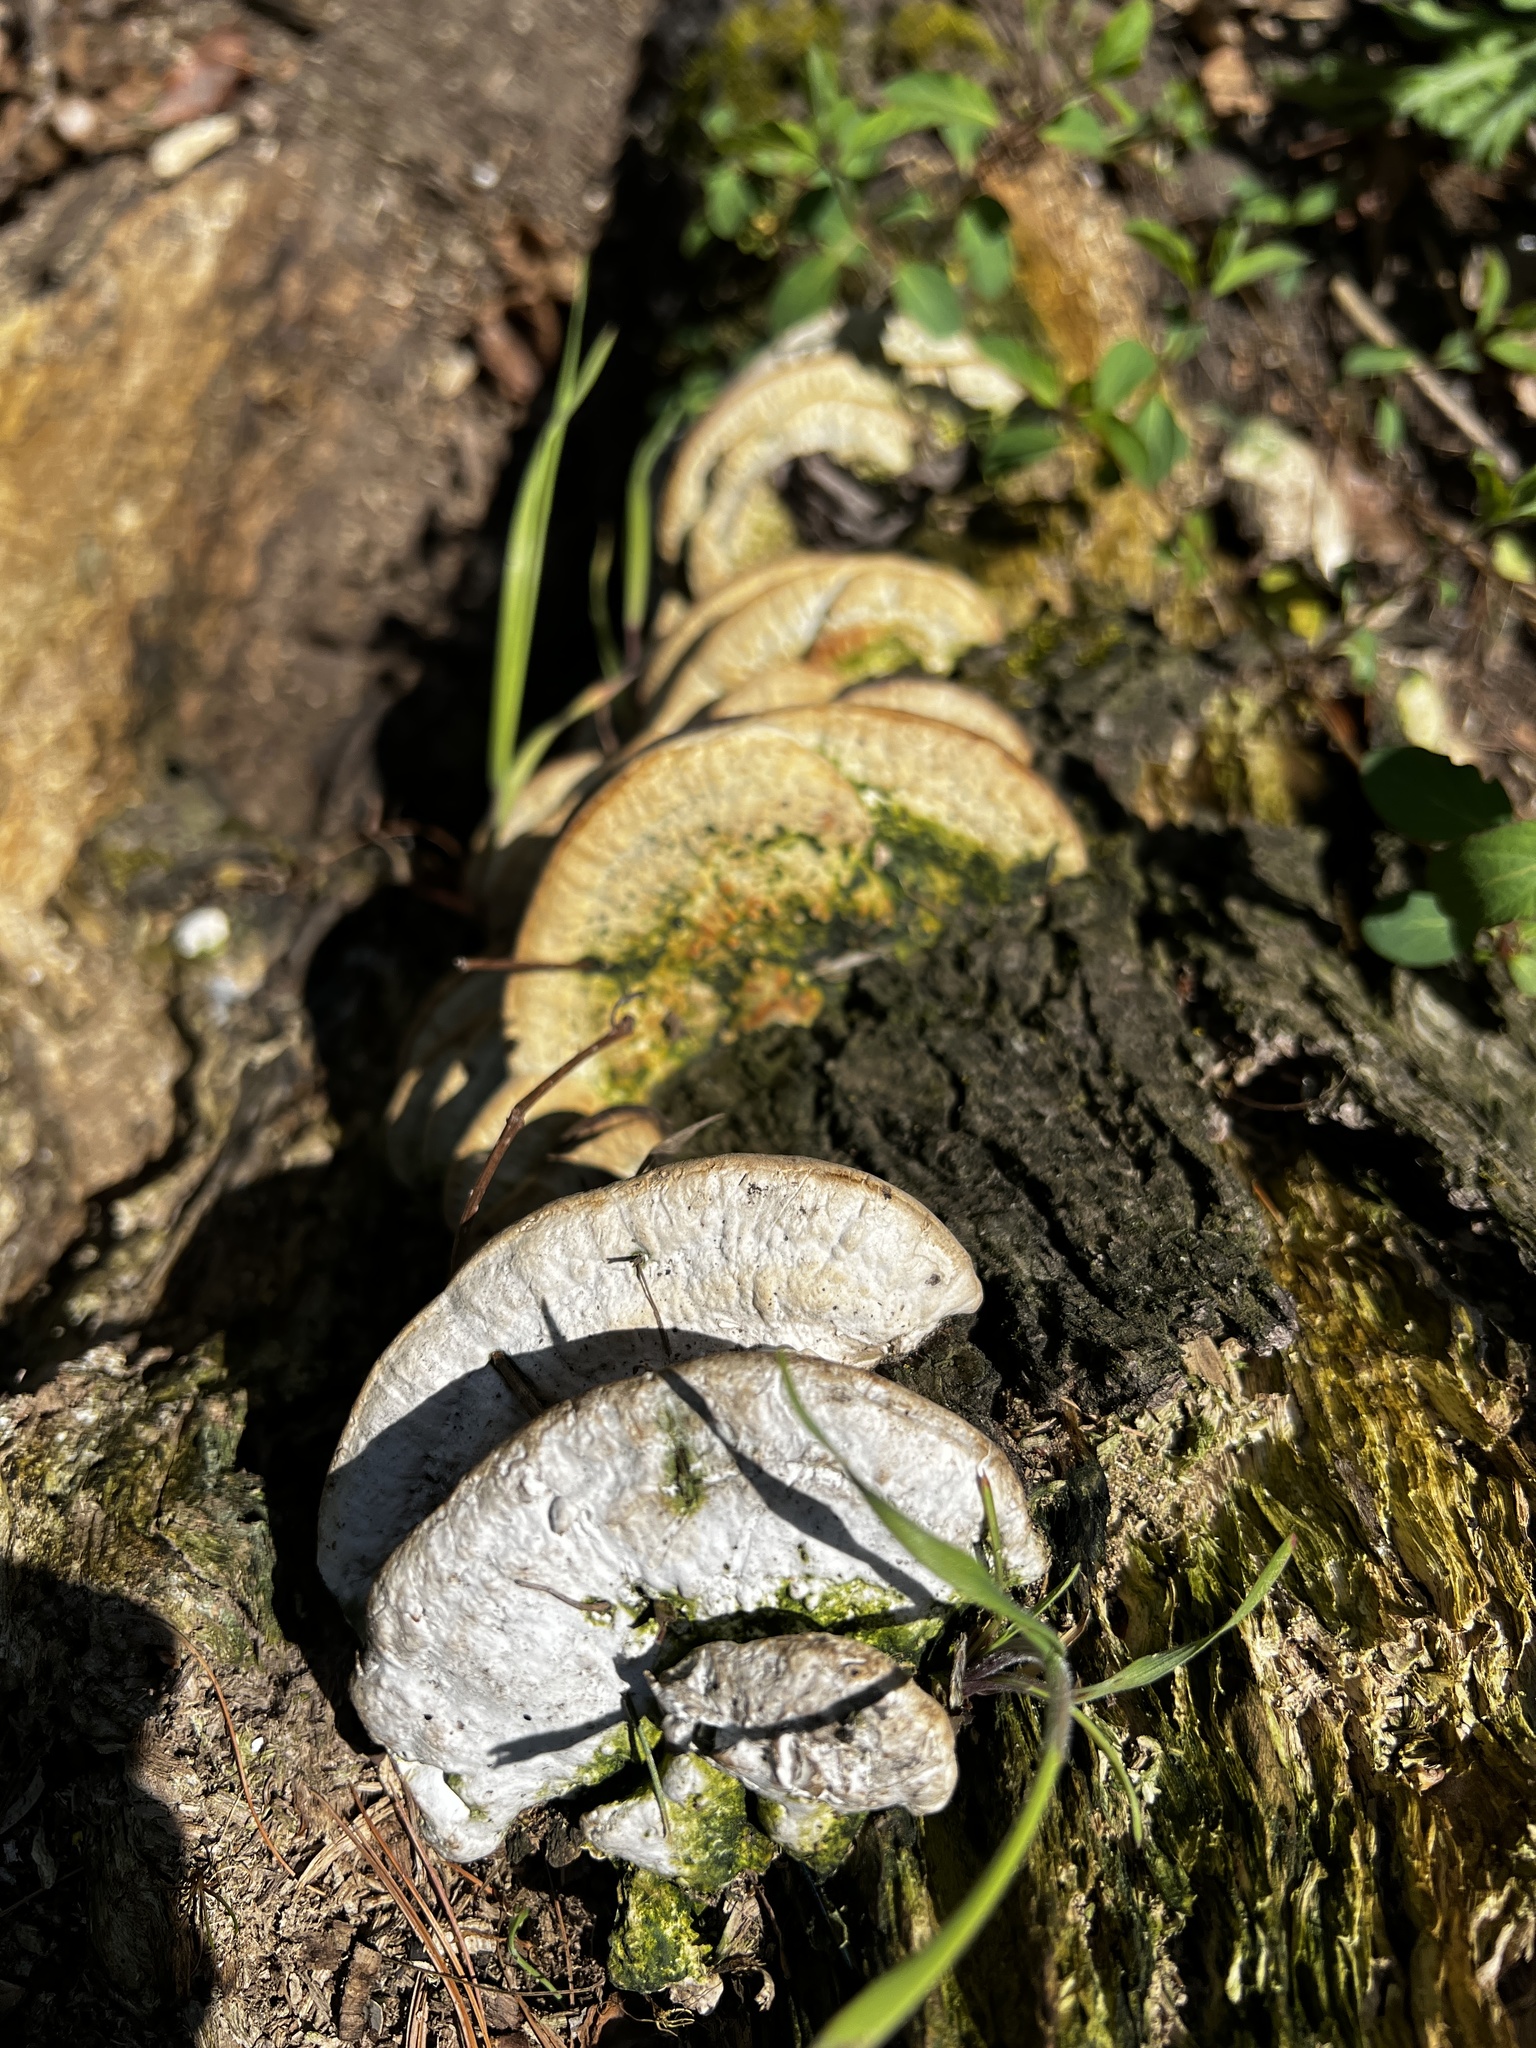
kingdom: Fungi
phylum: Basidiomycota
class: Agaricomycetes
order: Polyporales
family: Polyporaceae
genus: Trametes
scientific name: Trametes lactinea
